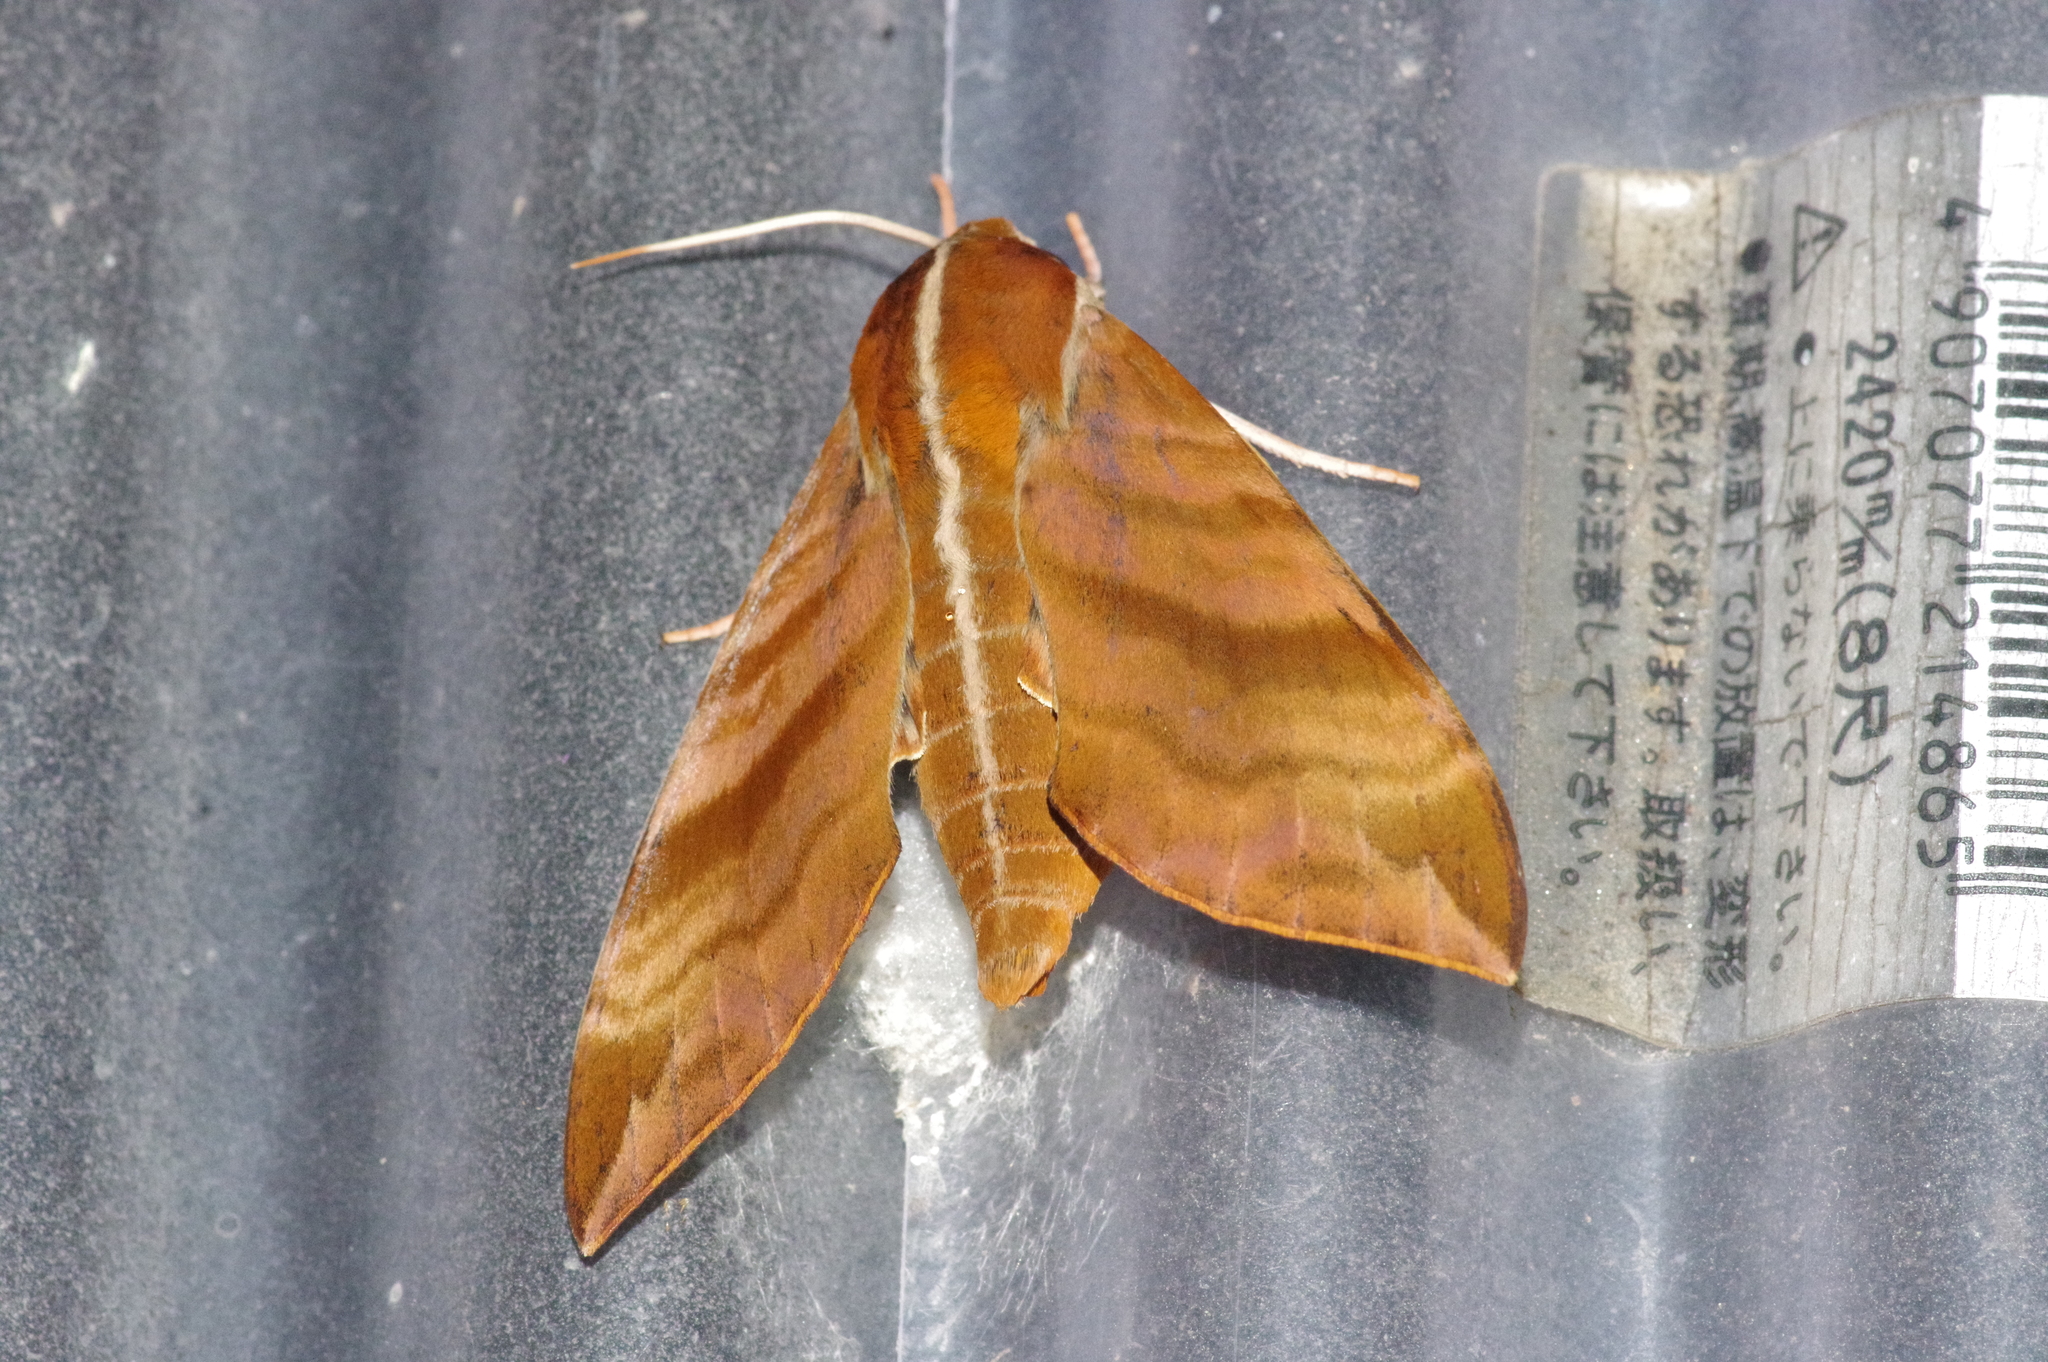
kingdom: Animalia
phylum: Arthropoda
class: Insecta
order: Lepidoptera
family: Sphingidae
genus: Ampelophaga
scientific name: Ampelophaga rubiginosa
